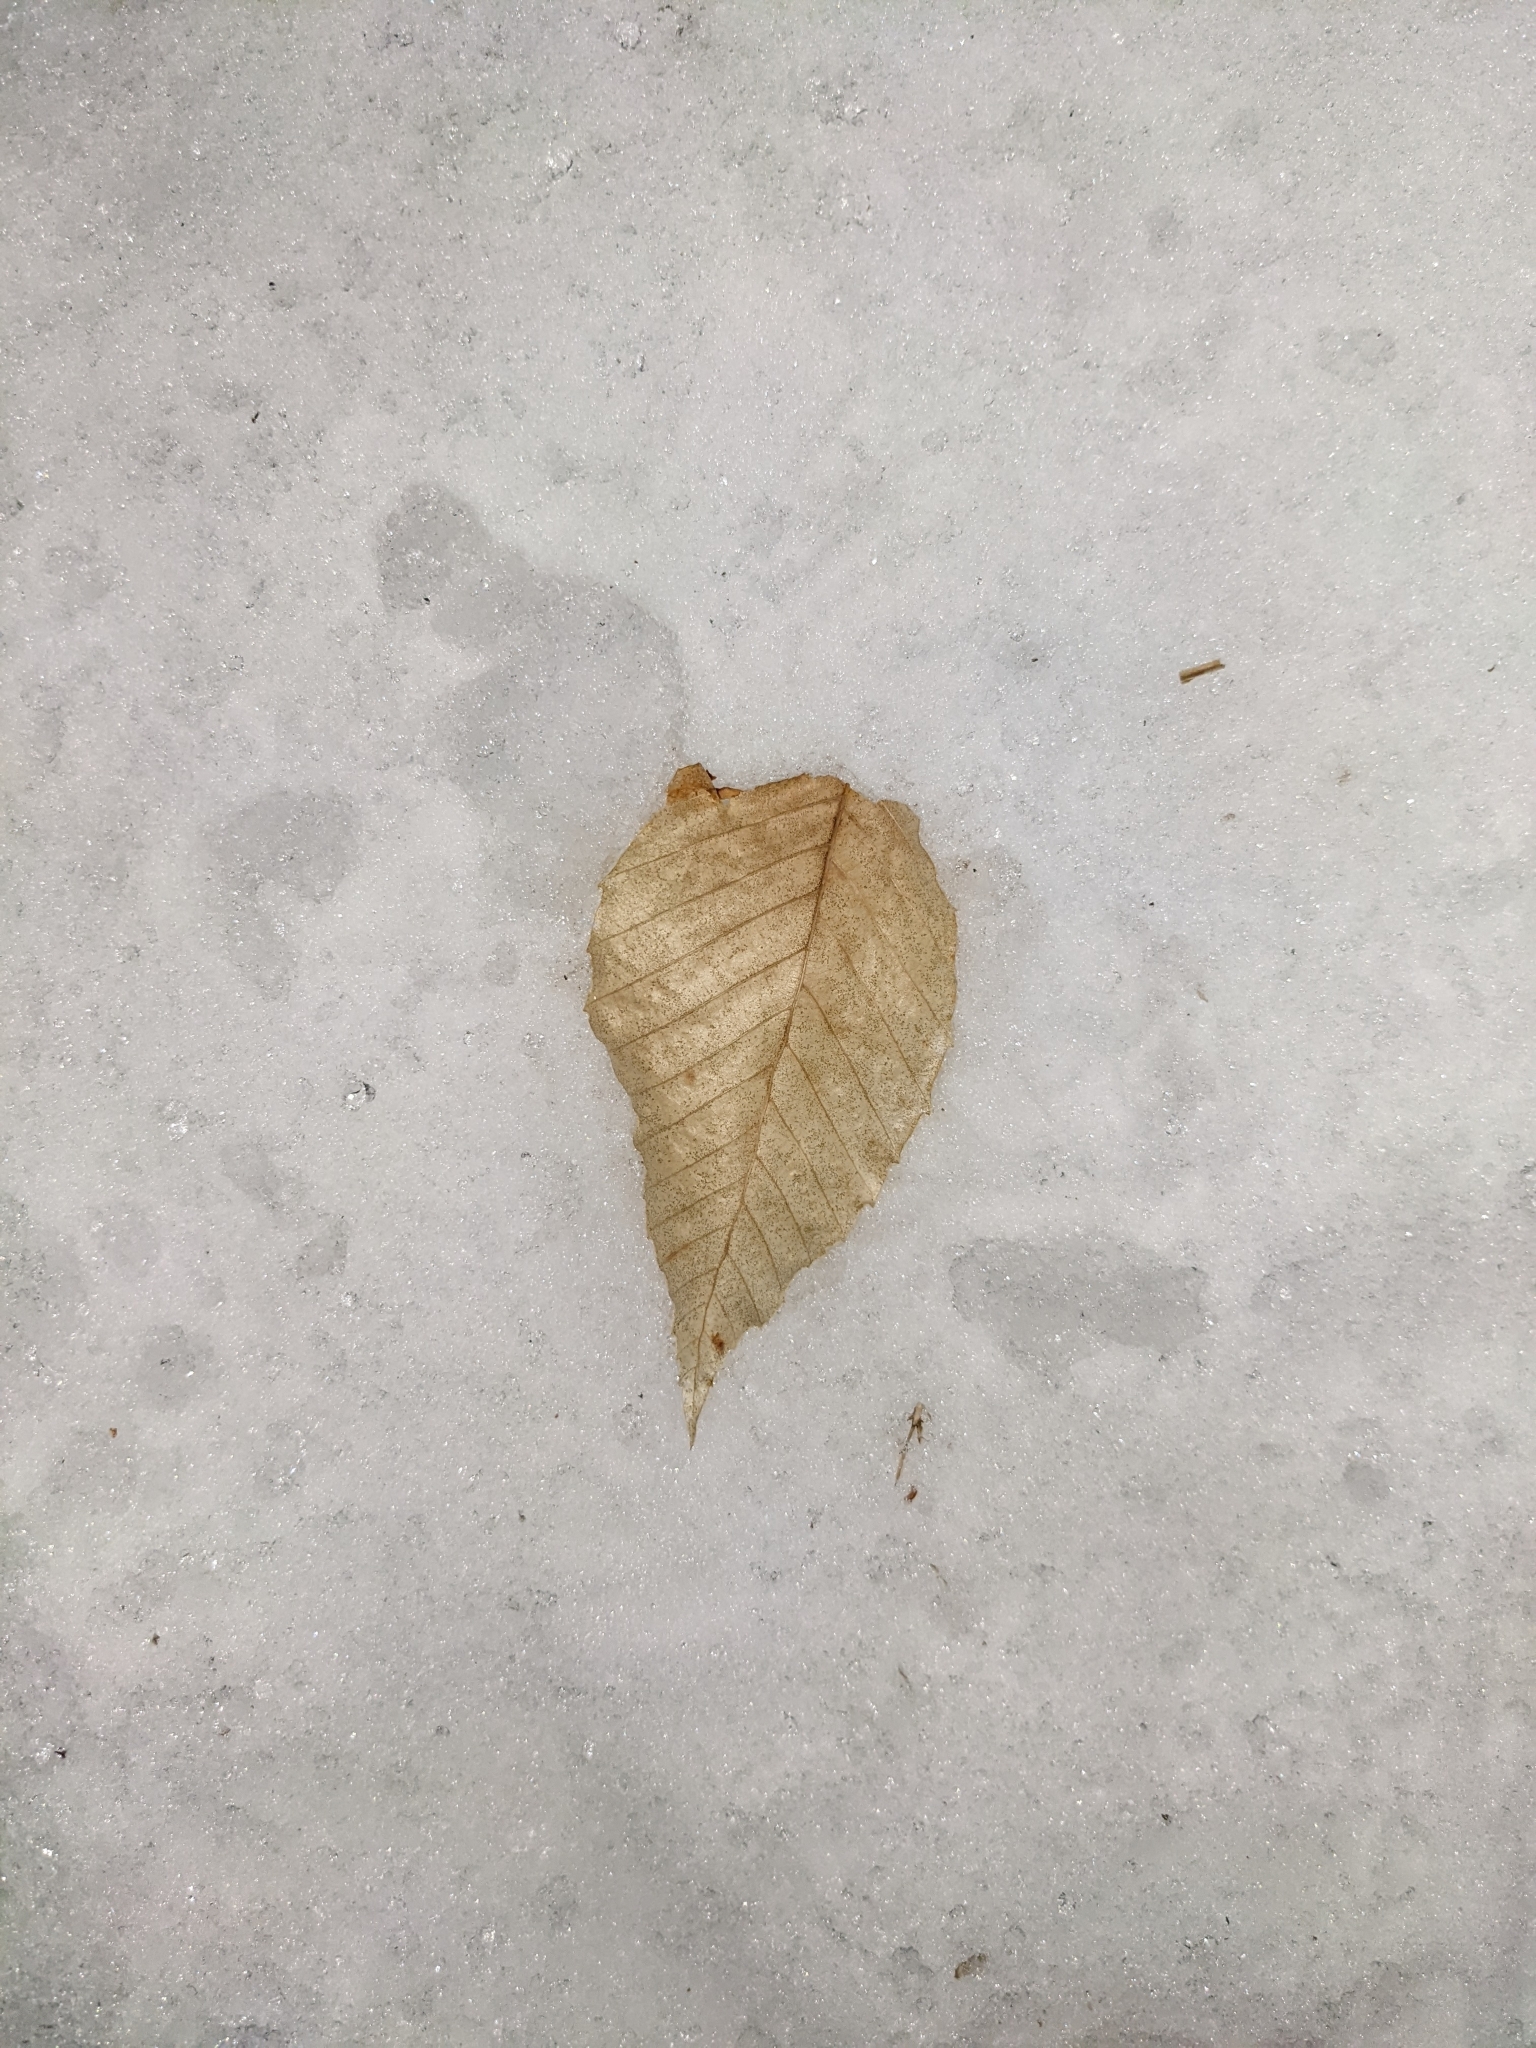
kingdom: Plantae
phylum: Tracheophyta
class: Magnoliopsida
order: Fagales
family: Fagaceae
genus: Fagus
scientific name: Fagus grandifolia
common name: American beech
